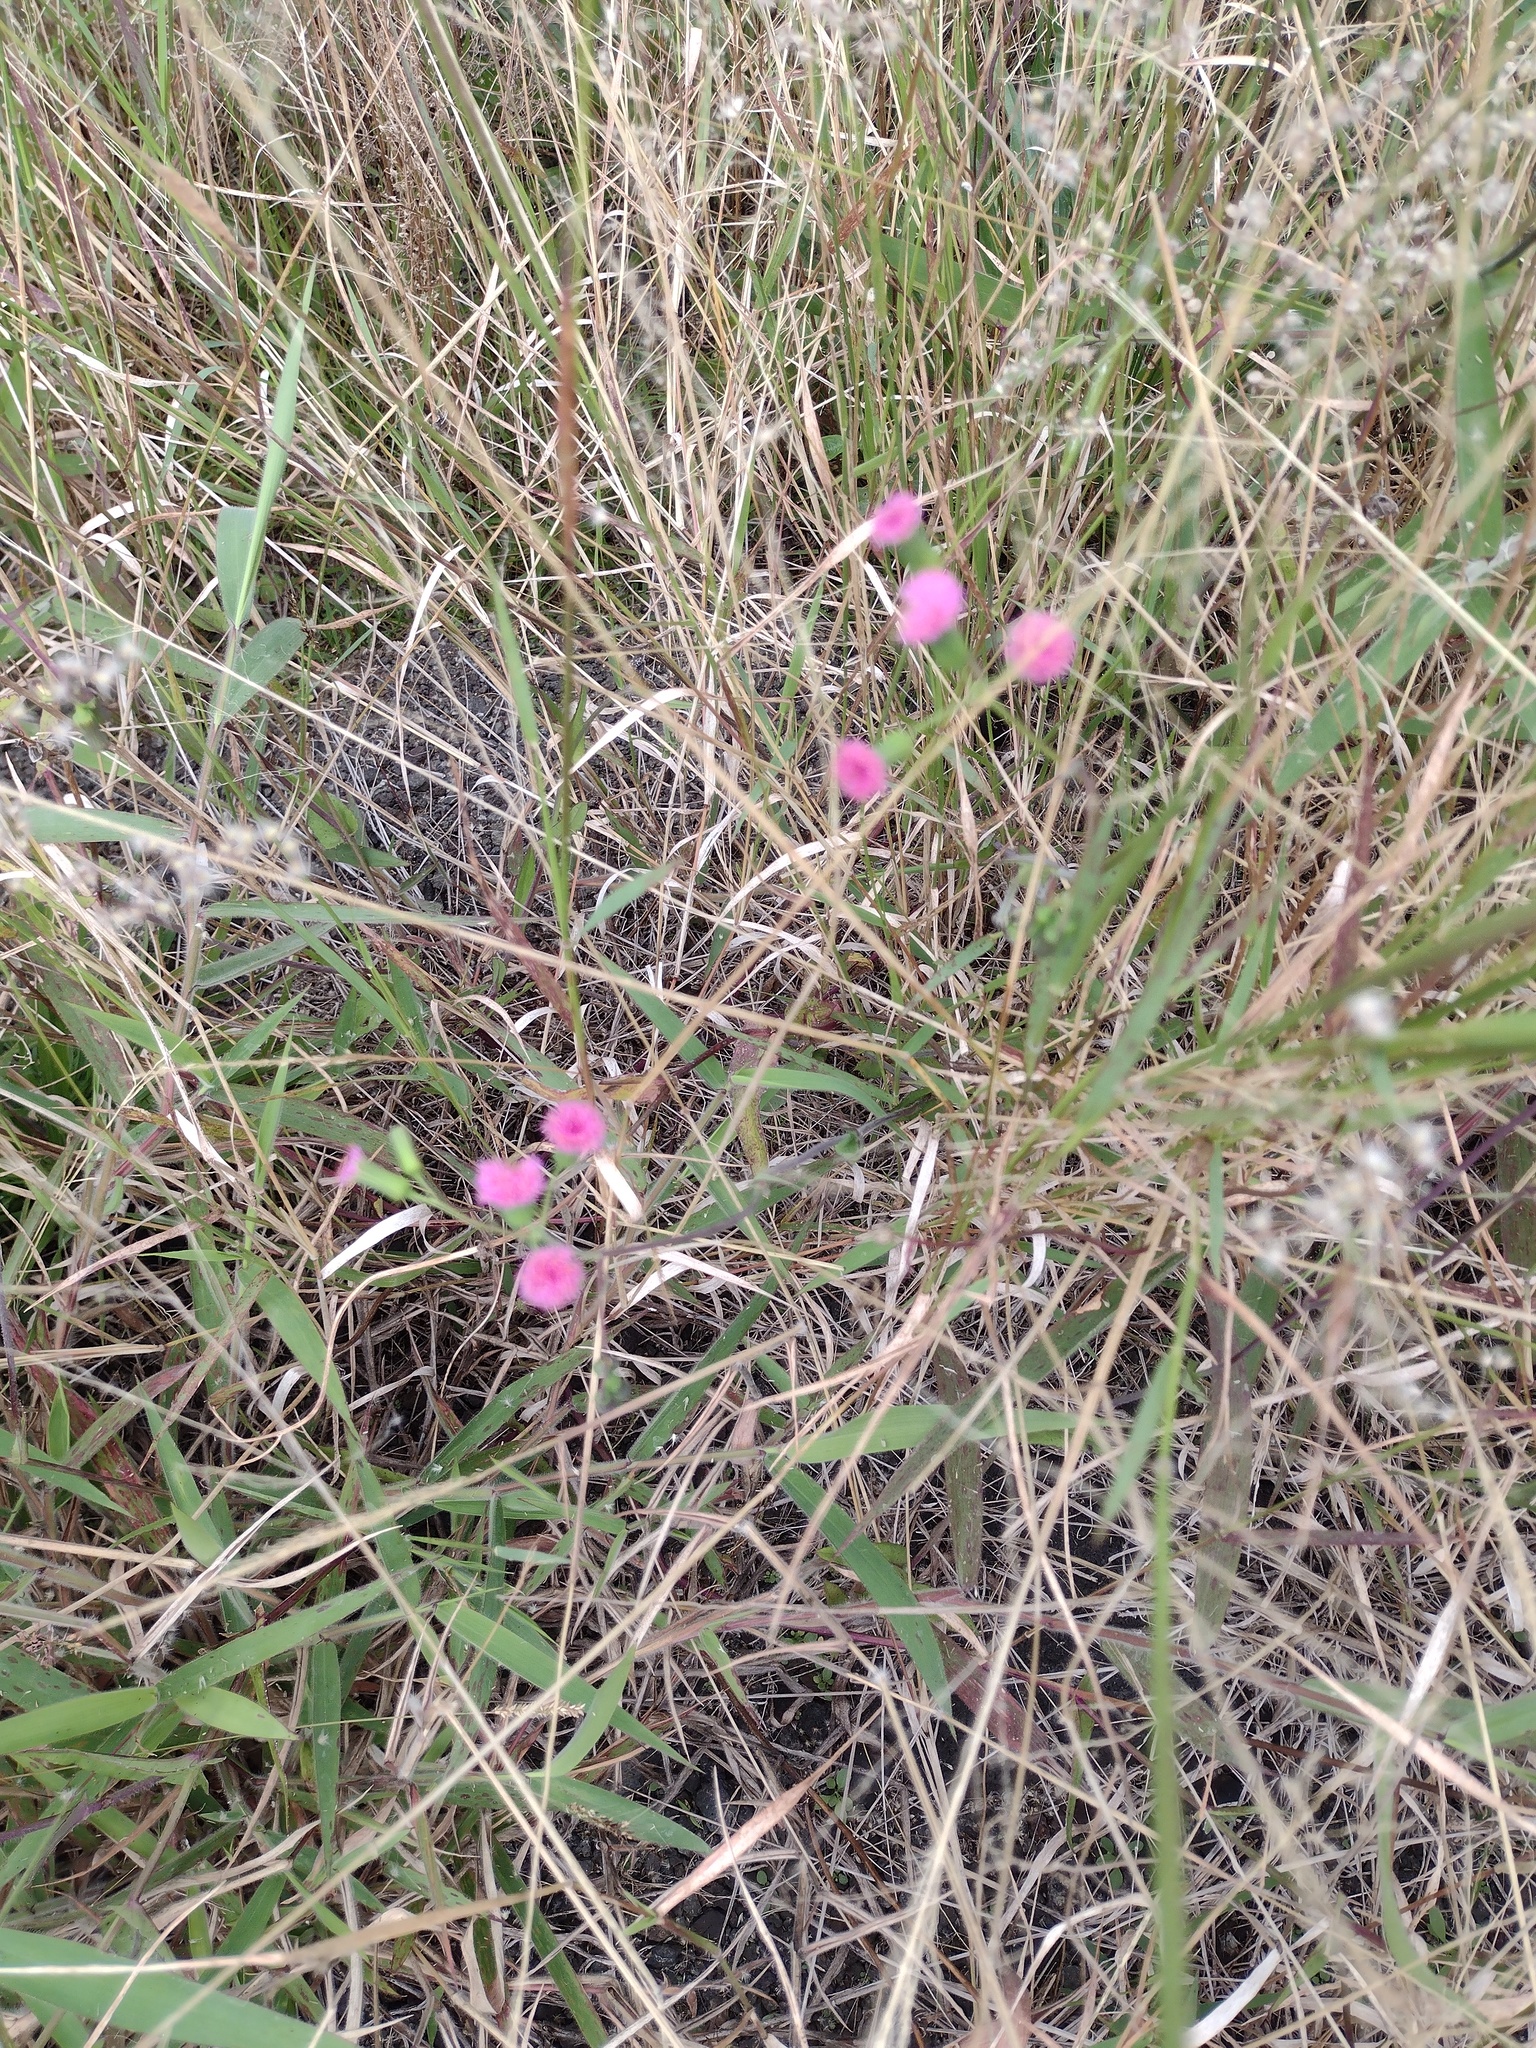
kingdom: Plantae
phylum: Tracheophyta
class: Magnoliopsida
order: Asterales
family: Asteraceae
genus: Emilia
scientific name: Emilia sonchifolia
